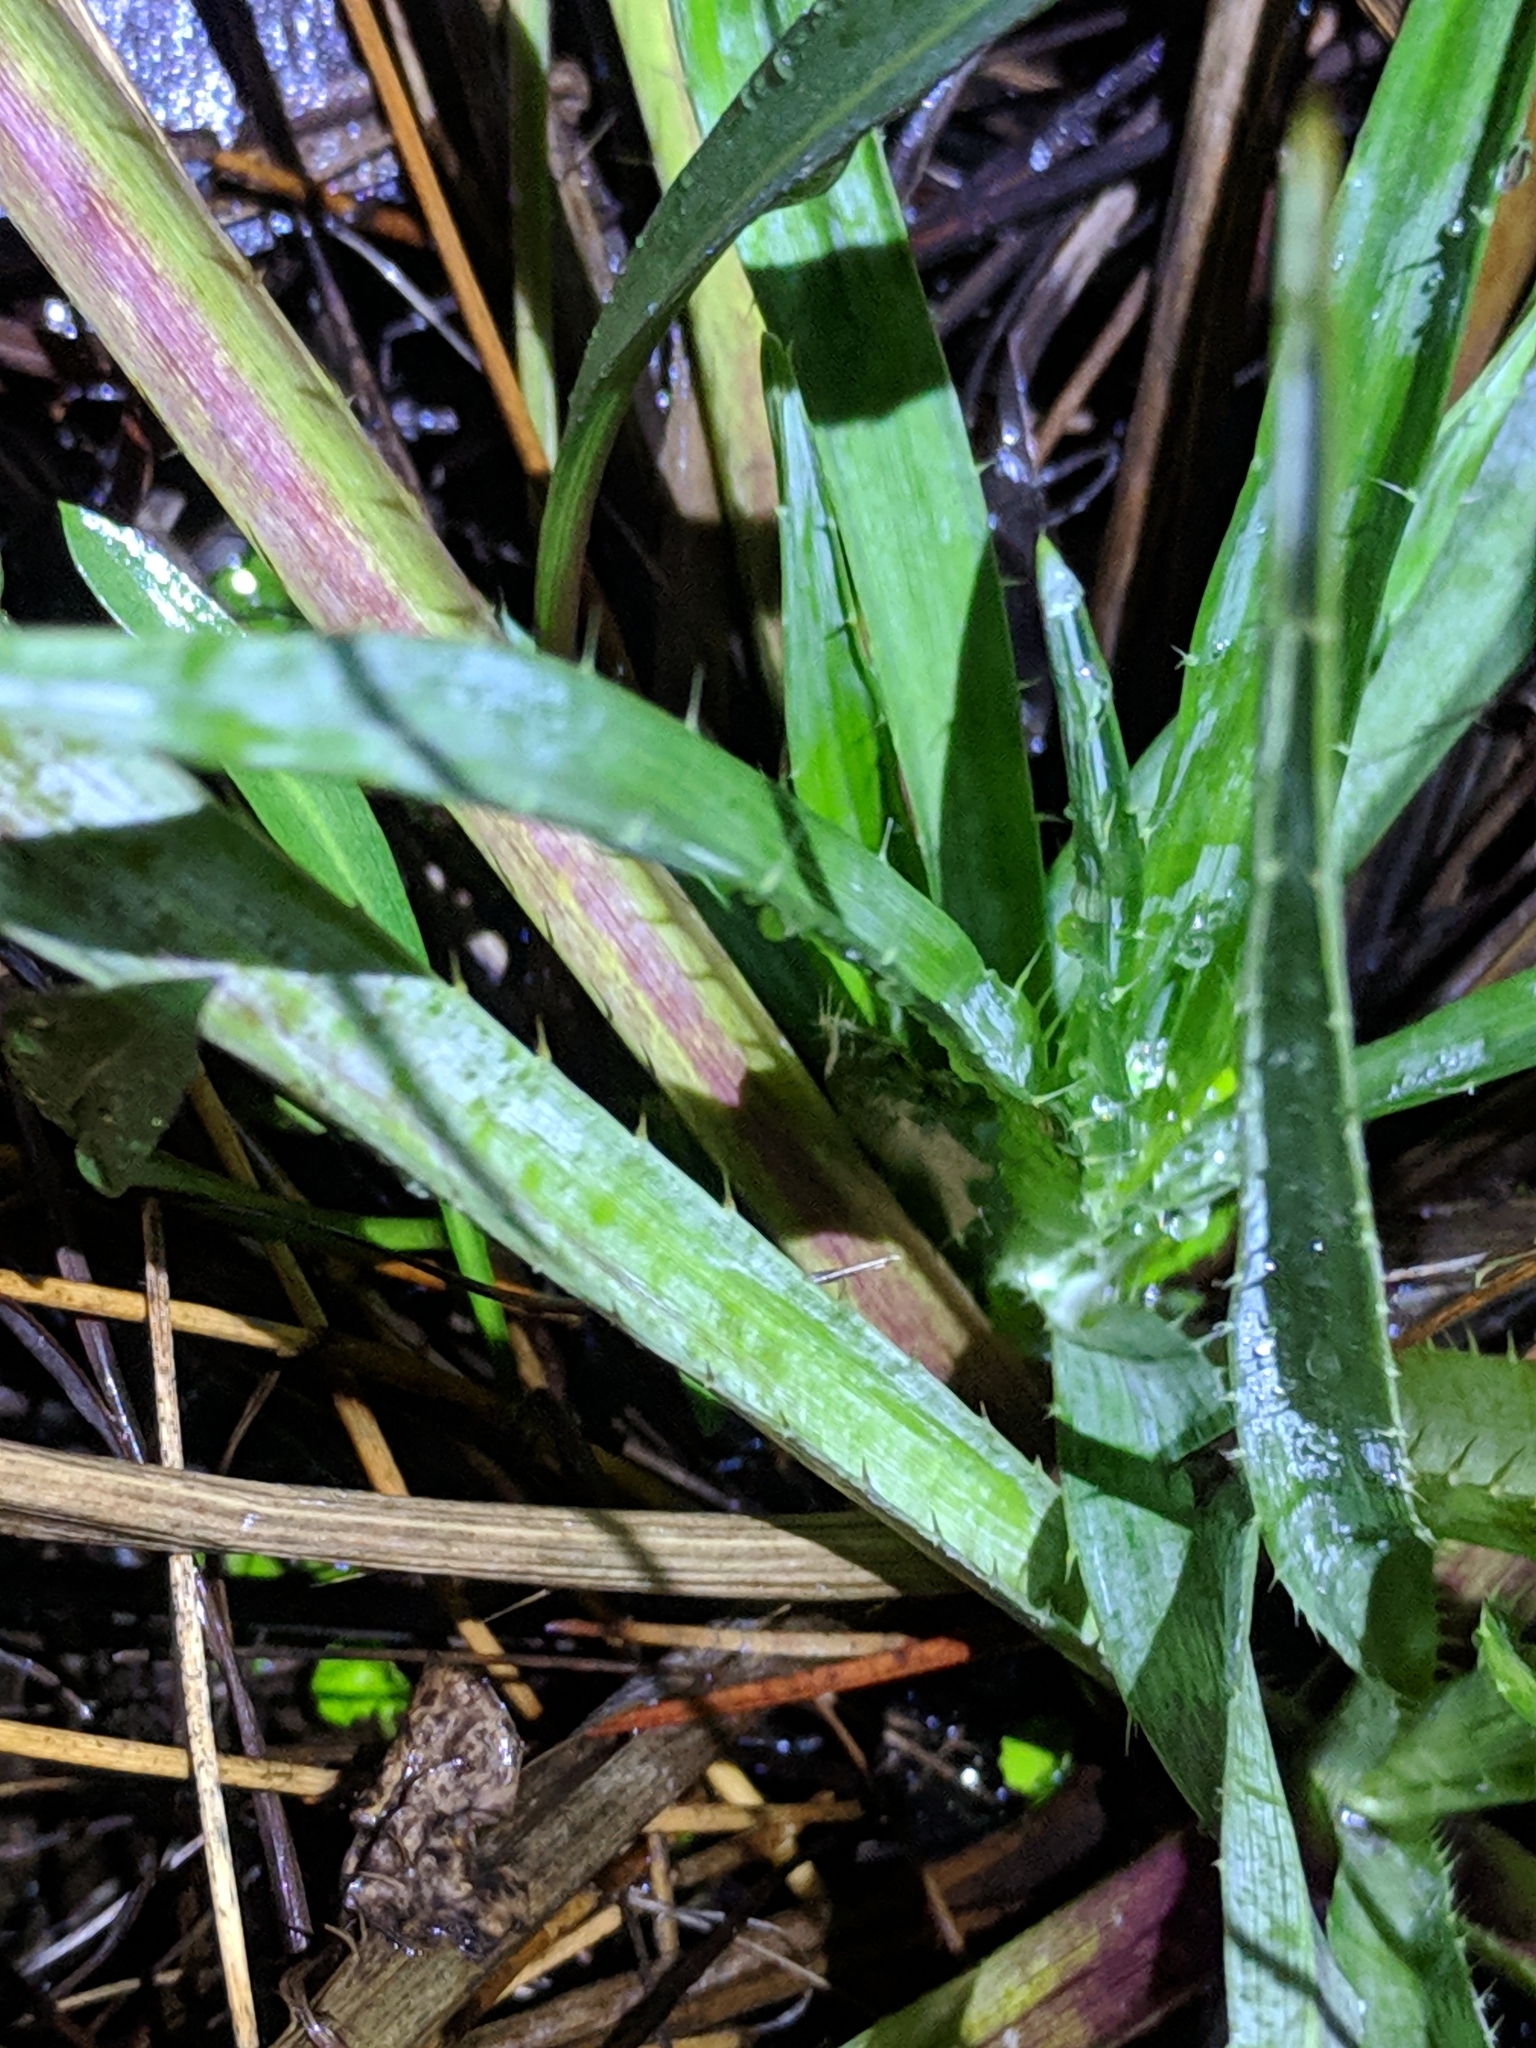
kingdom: Plantae
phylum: Tracheophyta
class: Magnoliopsida
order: Apiales
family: Apiaceae
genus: Eryngium
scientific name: Eryngium yuccifolium
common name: Button eryngo
